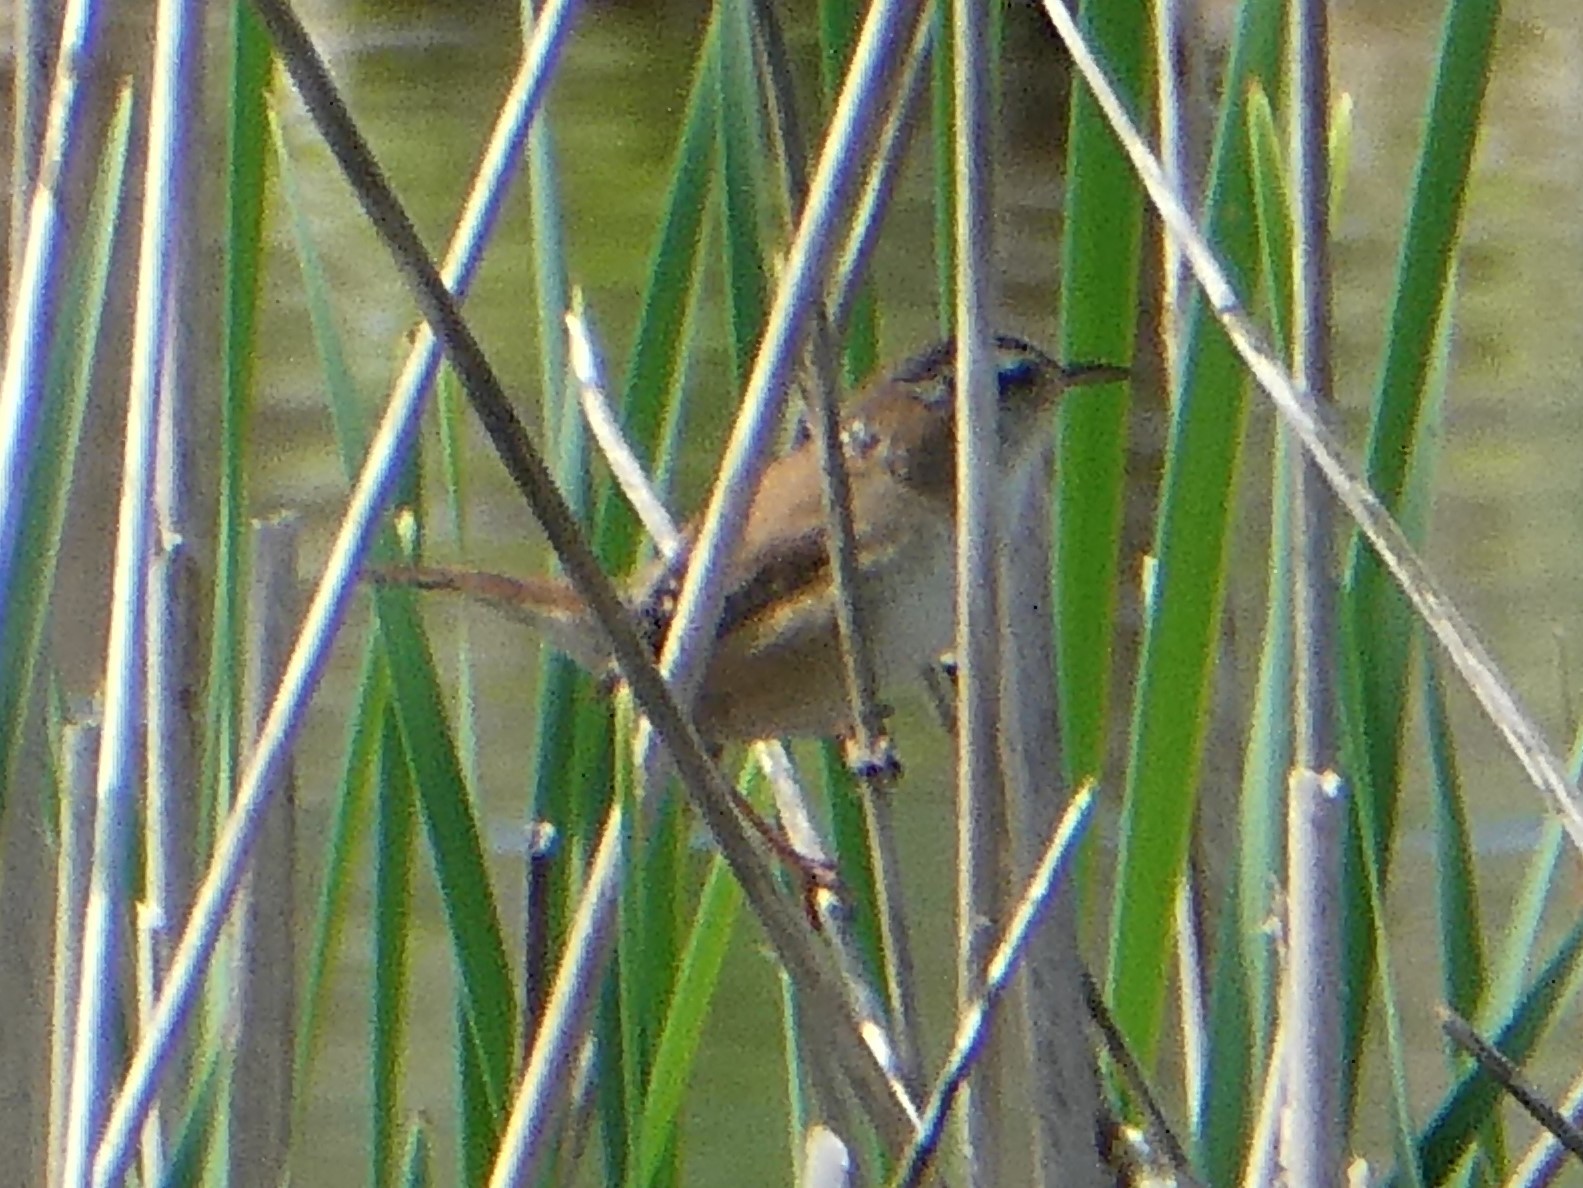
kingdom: Animalia
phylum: Chordata
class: Aves
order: Passeriformes
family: Troglodytidae
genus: Cistothorus
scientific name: Cistothorus palustris
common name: Marsh wren
